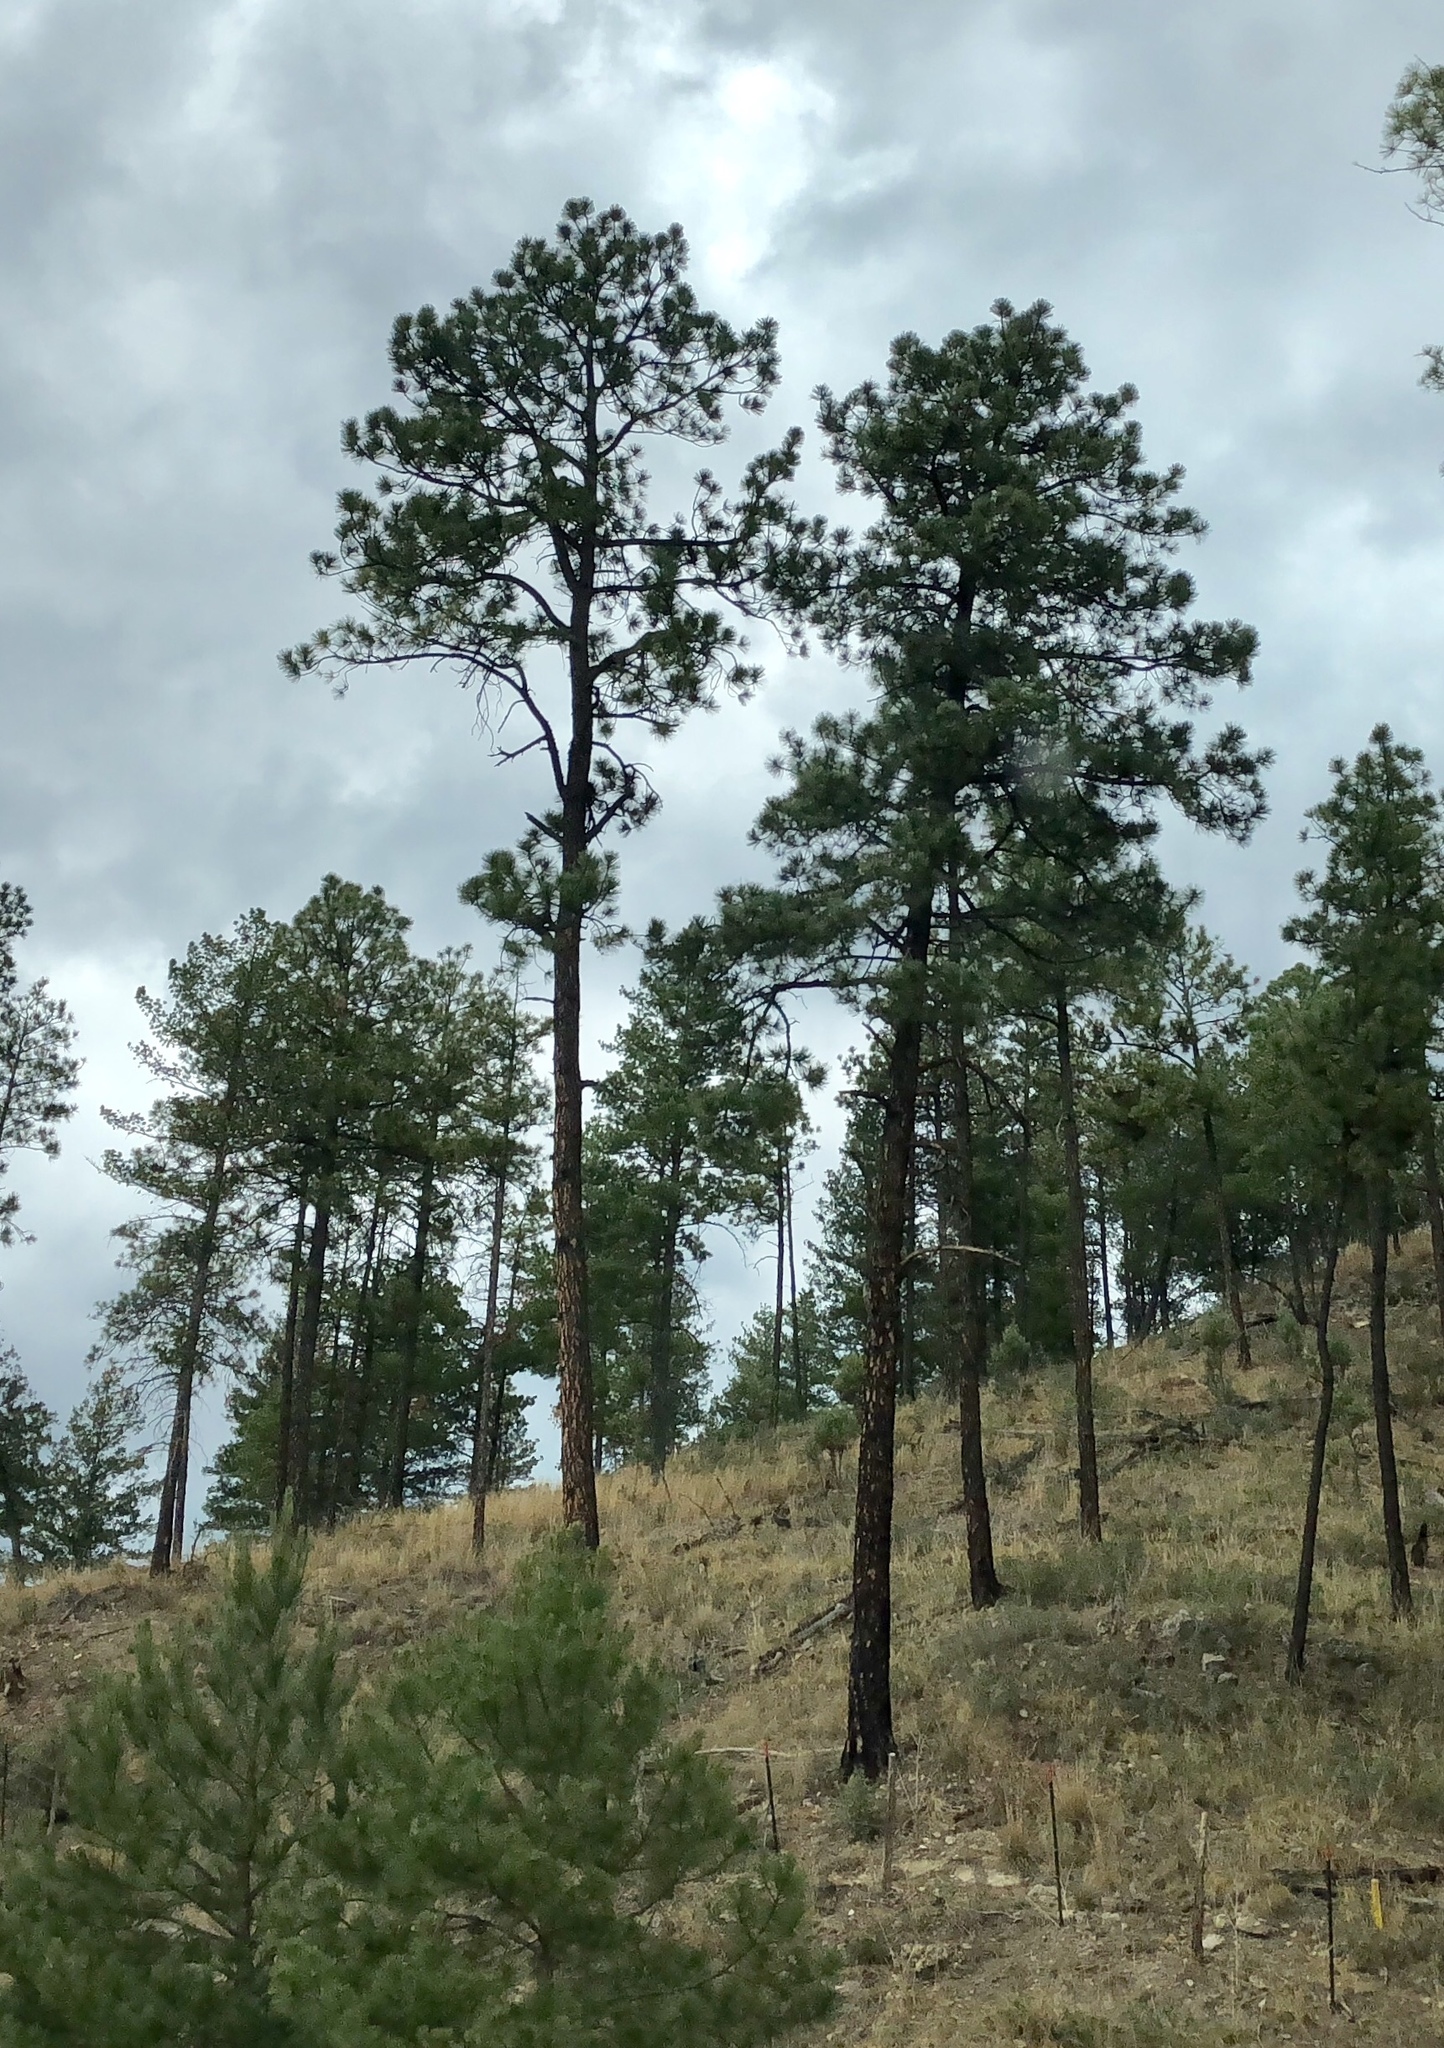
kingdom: Plantae
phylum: Tracheophyta
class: Pinopsida
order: Pinales
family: Pinaceae
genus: Pinus
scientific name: Pinus ponderosa
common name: Western yellow-pine
